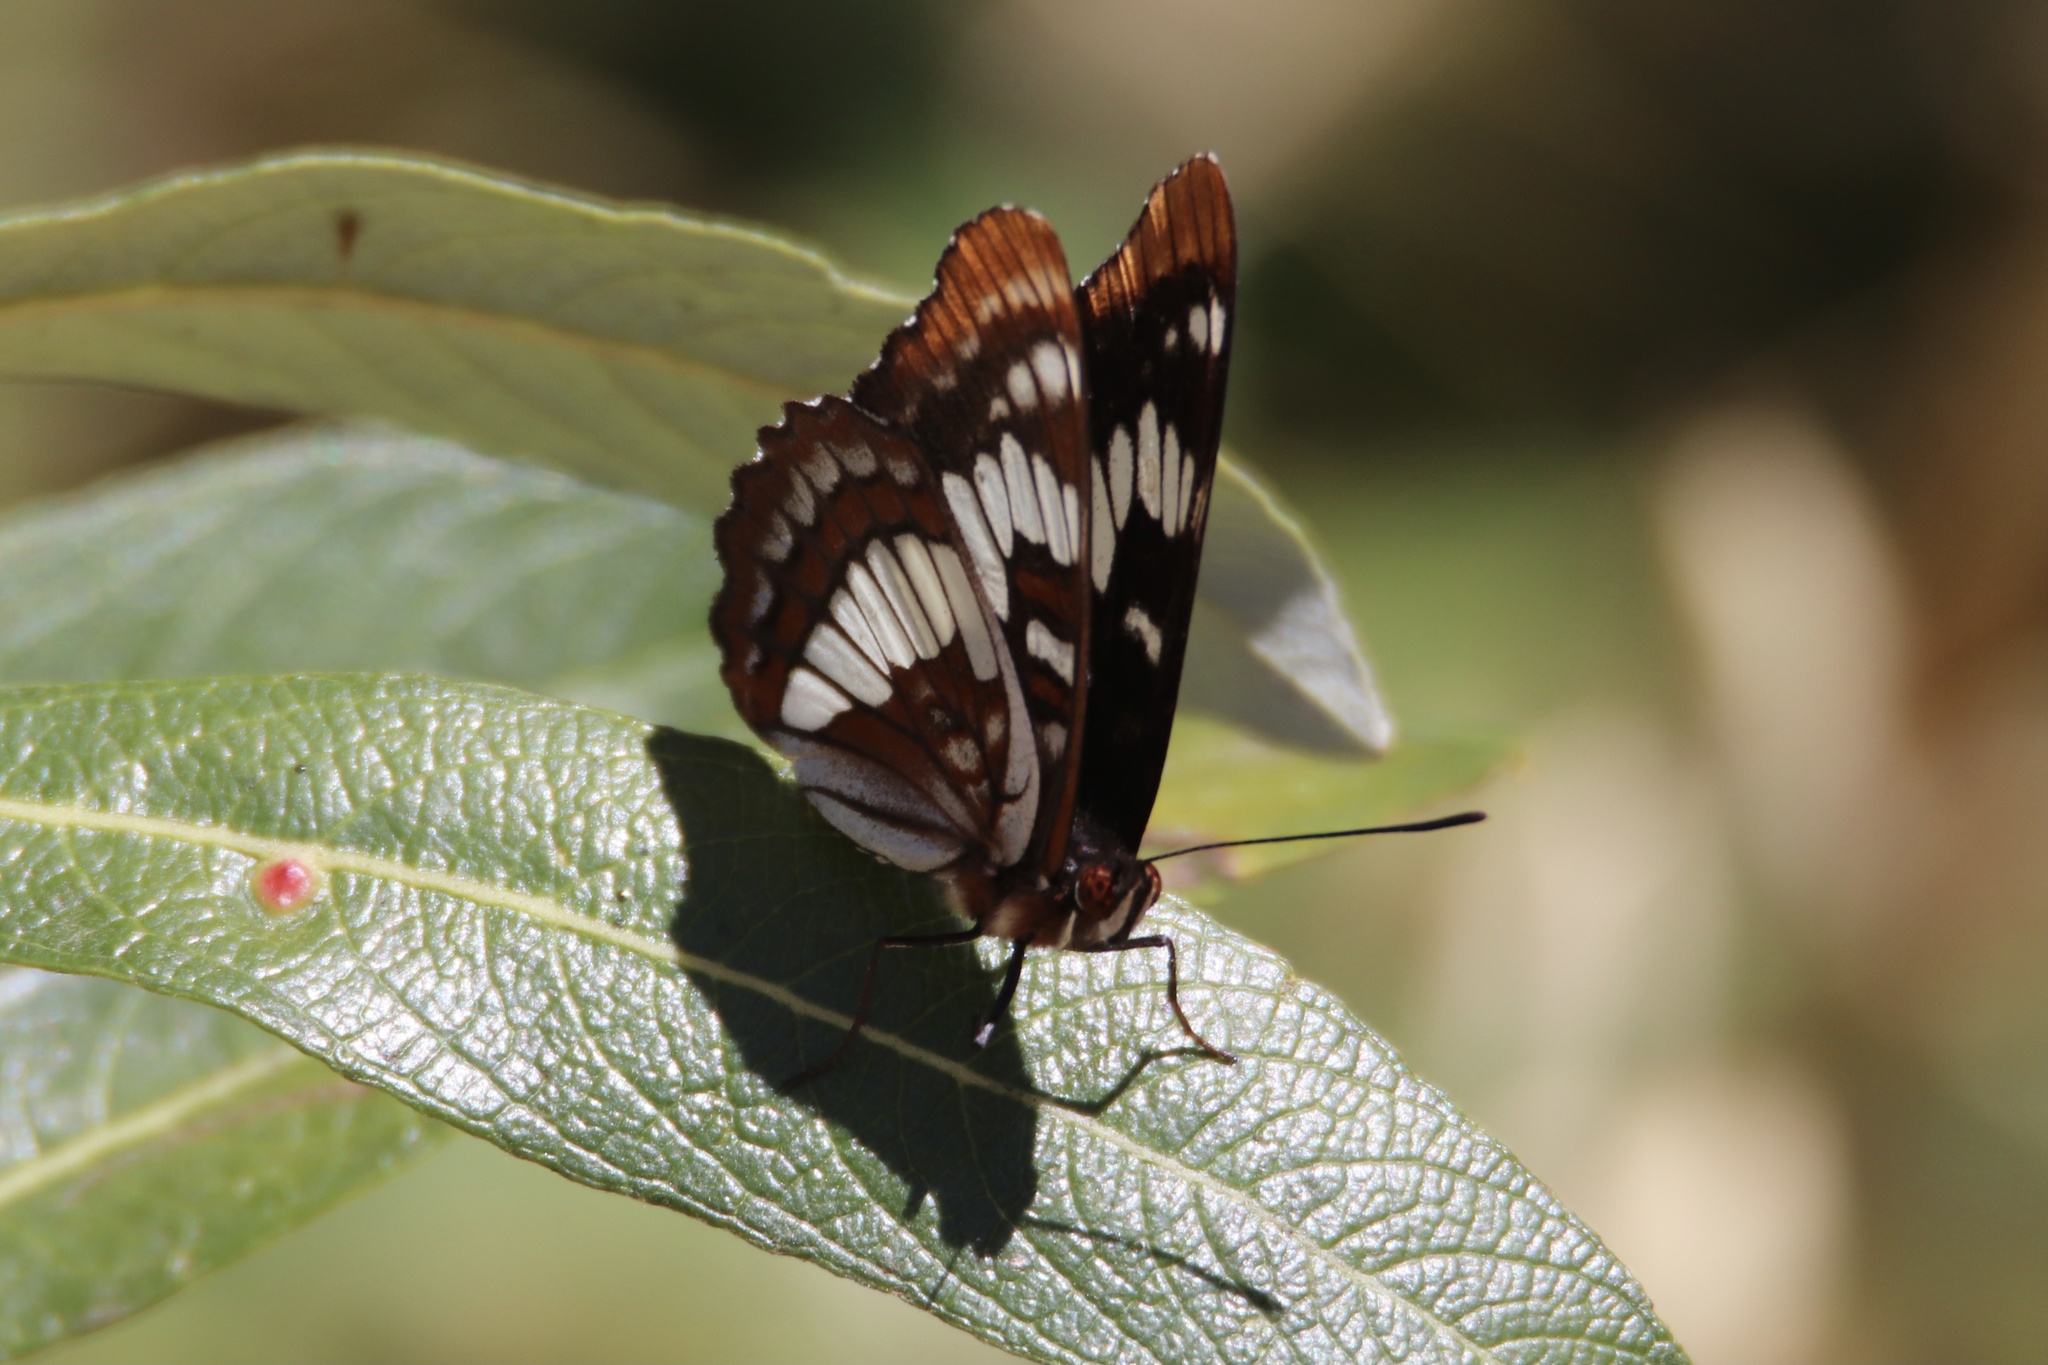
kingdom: Animalia
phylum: Arthropoda
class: Insecta
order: Lepidoptera
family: Nymphalidae
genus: Limenitis
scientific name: Limenitis lorquini
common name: Lorquin's admiral
